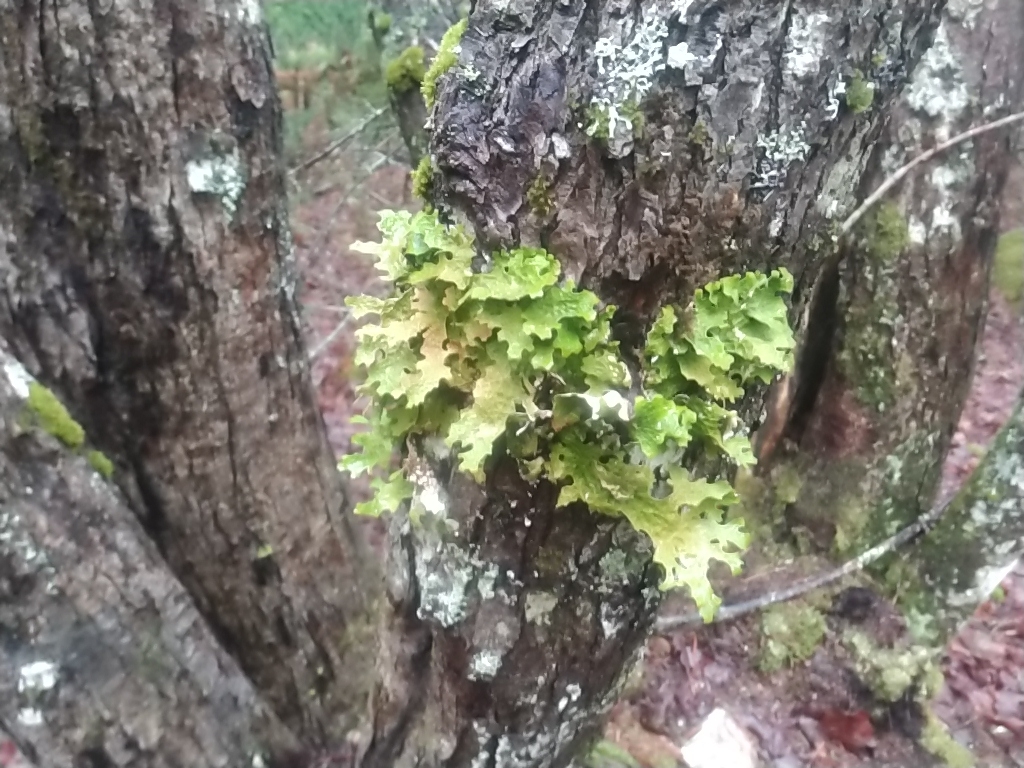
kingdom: Fungi
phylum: Ascomycota
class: Lecanoromycetes
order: Peltigerales
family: Lobariaceae
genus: Lobaria
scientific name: Lobaria pulmonaria
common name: Lungwort
